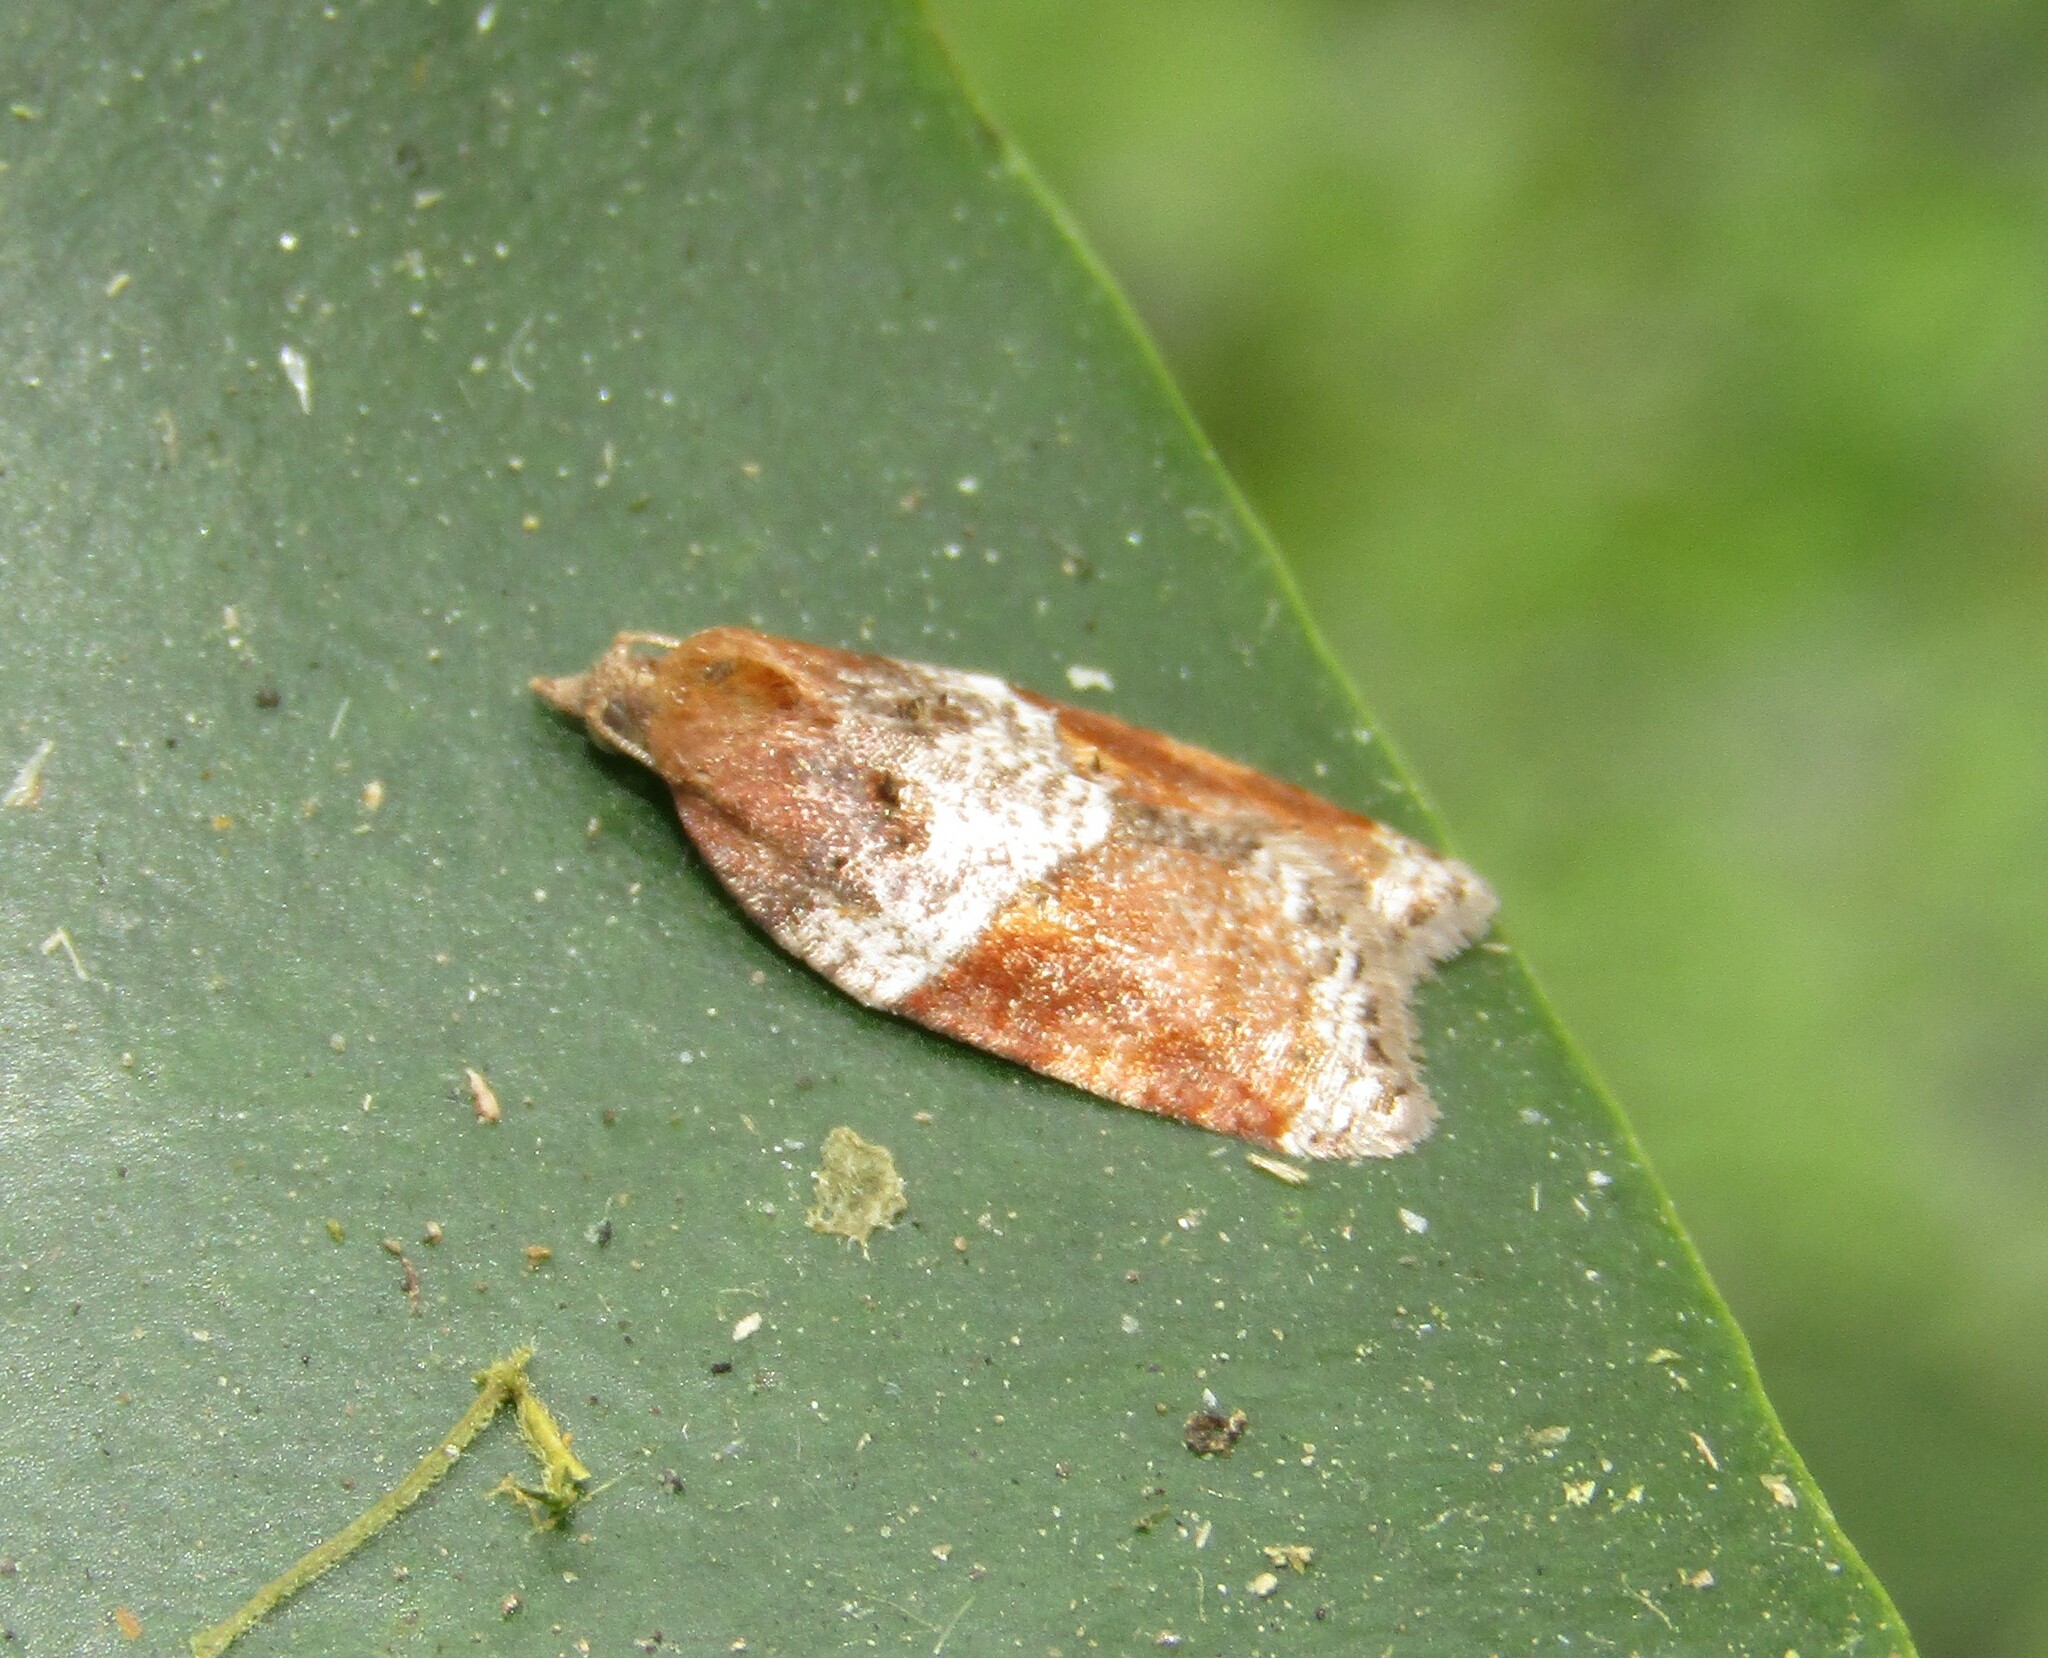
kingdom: Animalia
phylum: Arthropoda
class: Insecta
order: Lepidoptera
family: Tortricidae
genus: Acleris
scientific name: Acleris laterana
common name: Dark-triangle button
